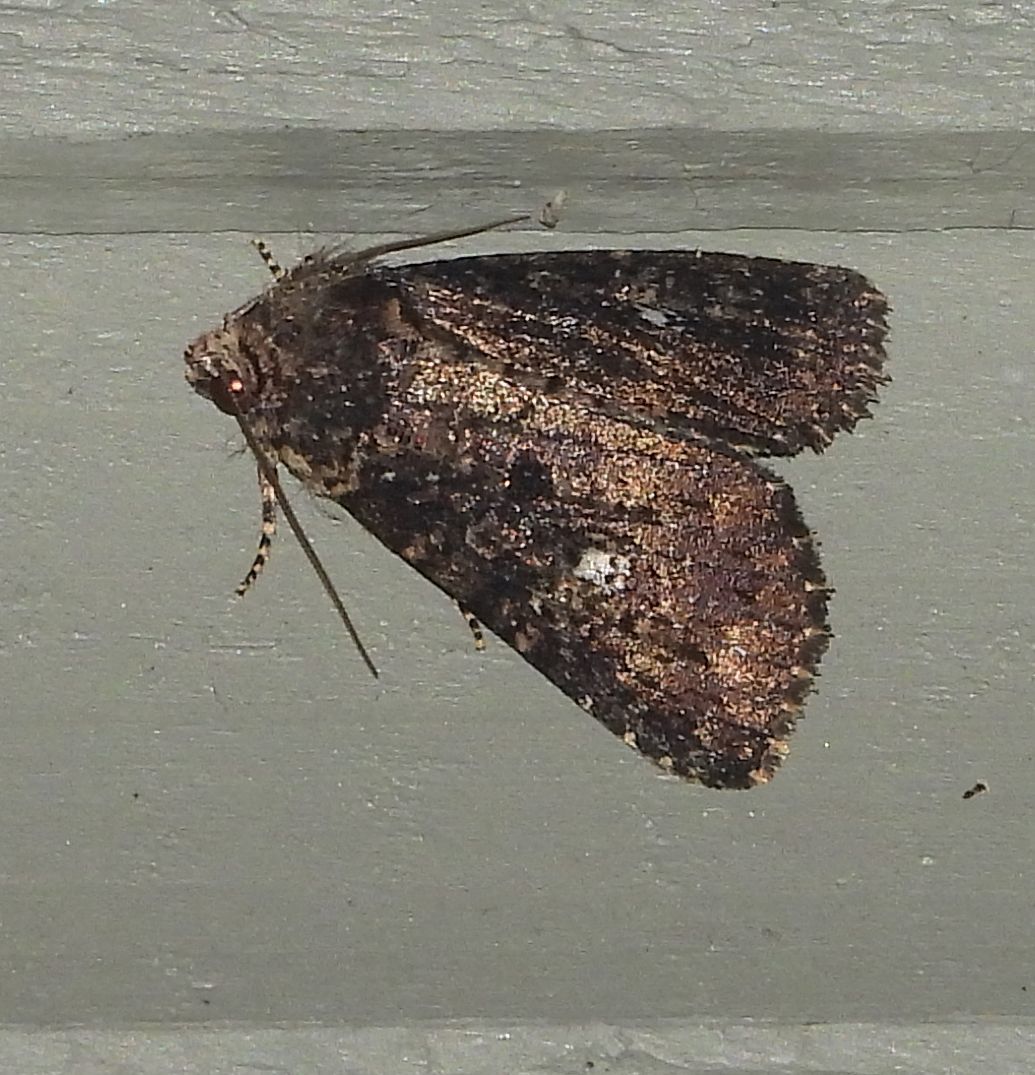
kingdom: Animalia
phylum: Arthropoda
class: Insecta
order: Lepidoptera
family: Noctuidae
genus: Condica
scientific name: Condica vecors
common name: Dusky groundling
